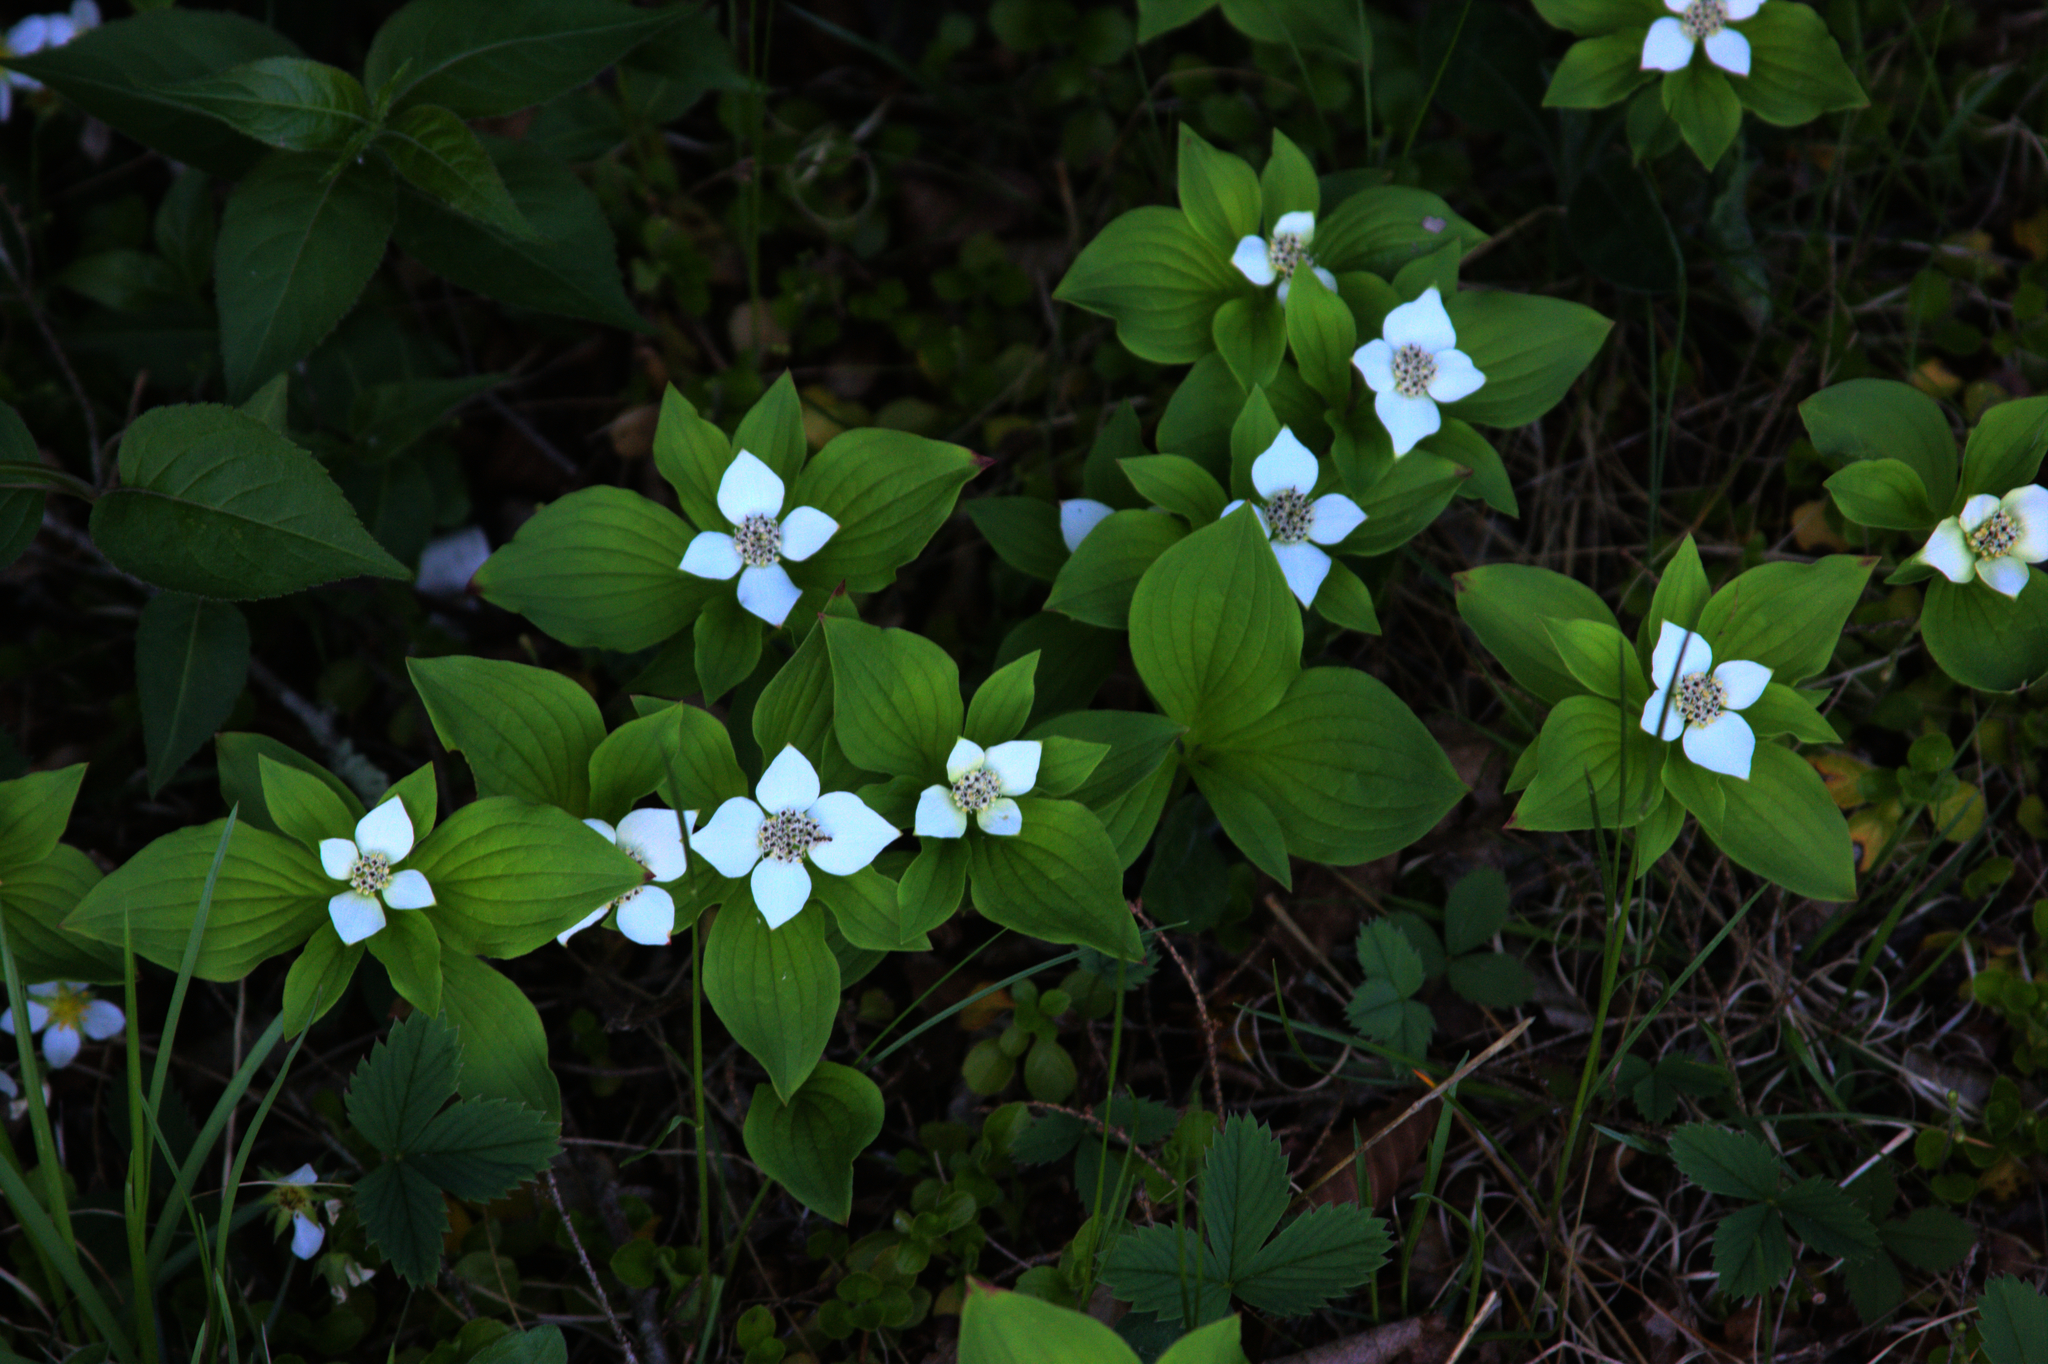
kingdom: Plantae
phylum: Tracheophyta
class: Magnoliopsida
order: Cornales
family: Cornaceae
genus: Cornus
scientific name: Cornus canadensis
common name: Creeping dogwood
